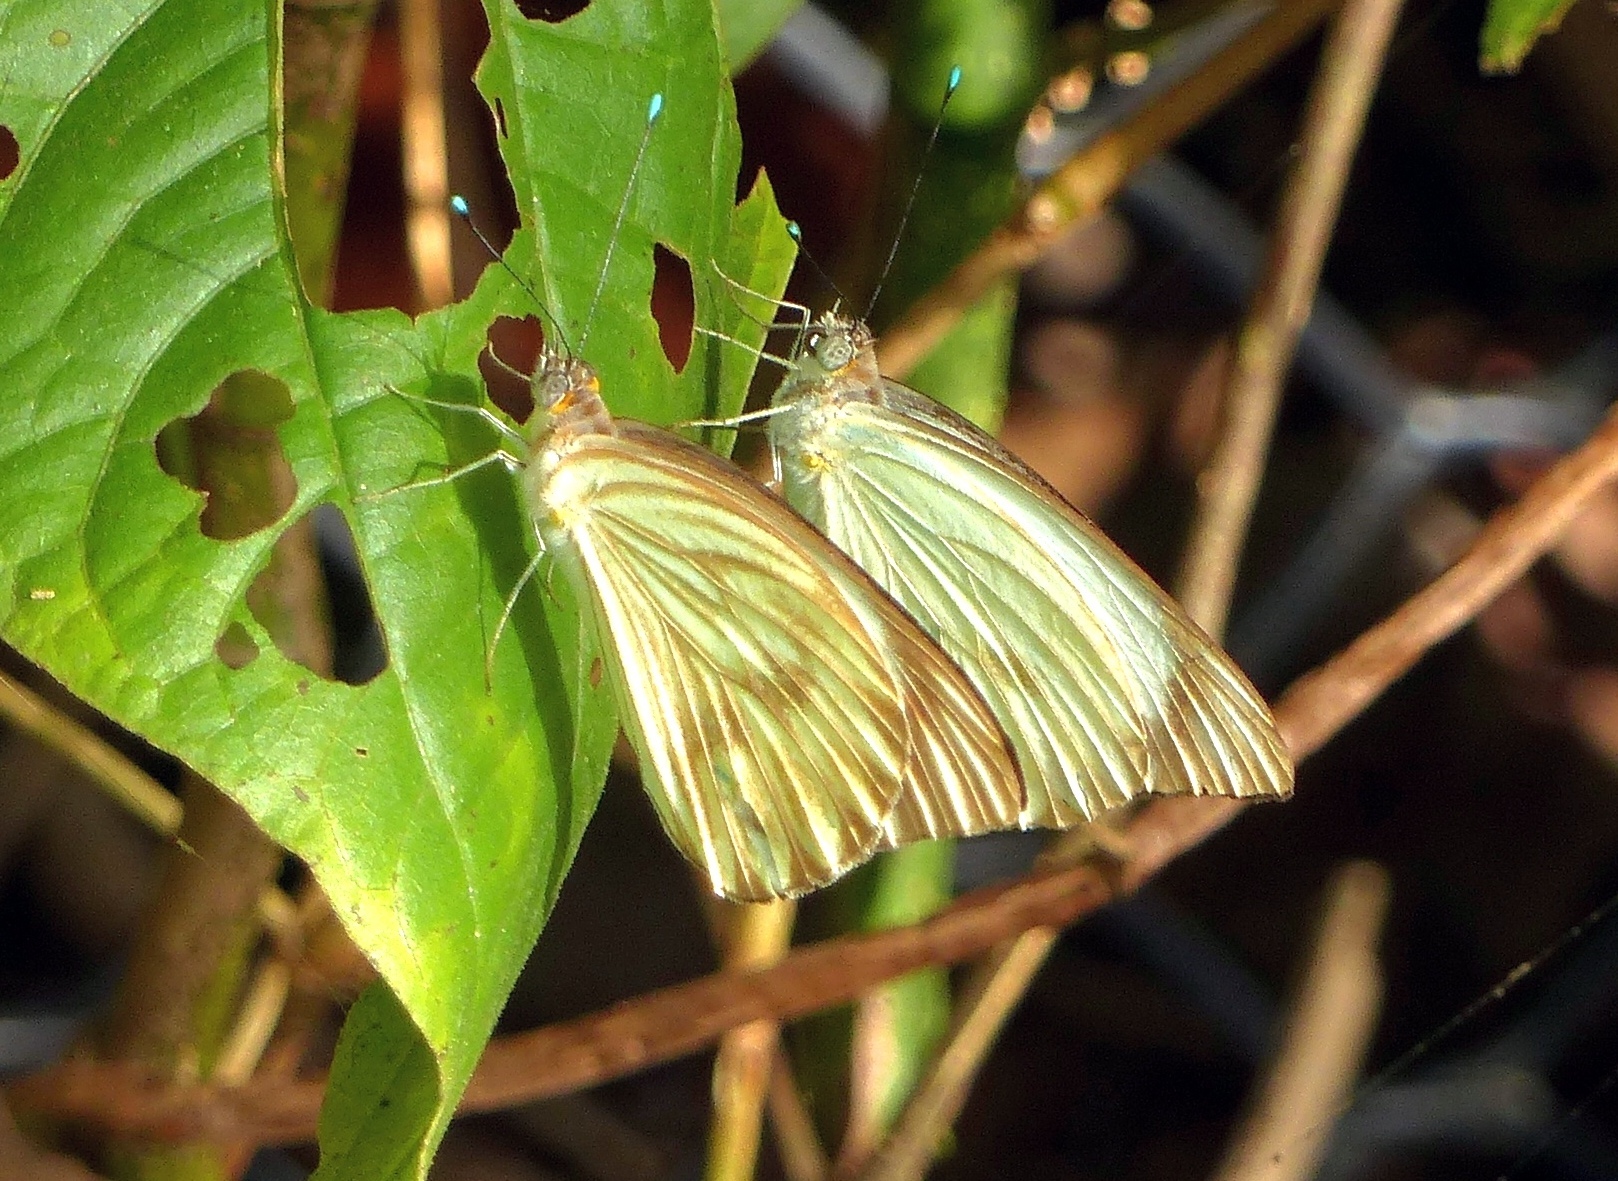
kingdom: Animalia
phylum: Arthropoda
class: Insecta
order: Lepidoptera
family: Pieridae
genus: Ascia
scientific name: Ascia monuste
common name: Great southern white
